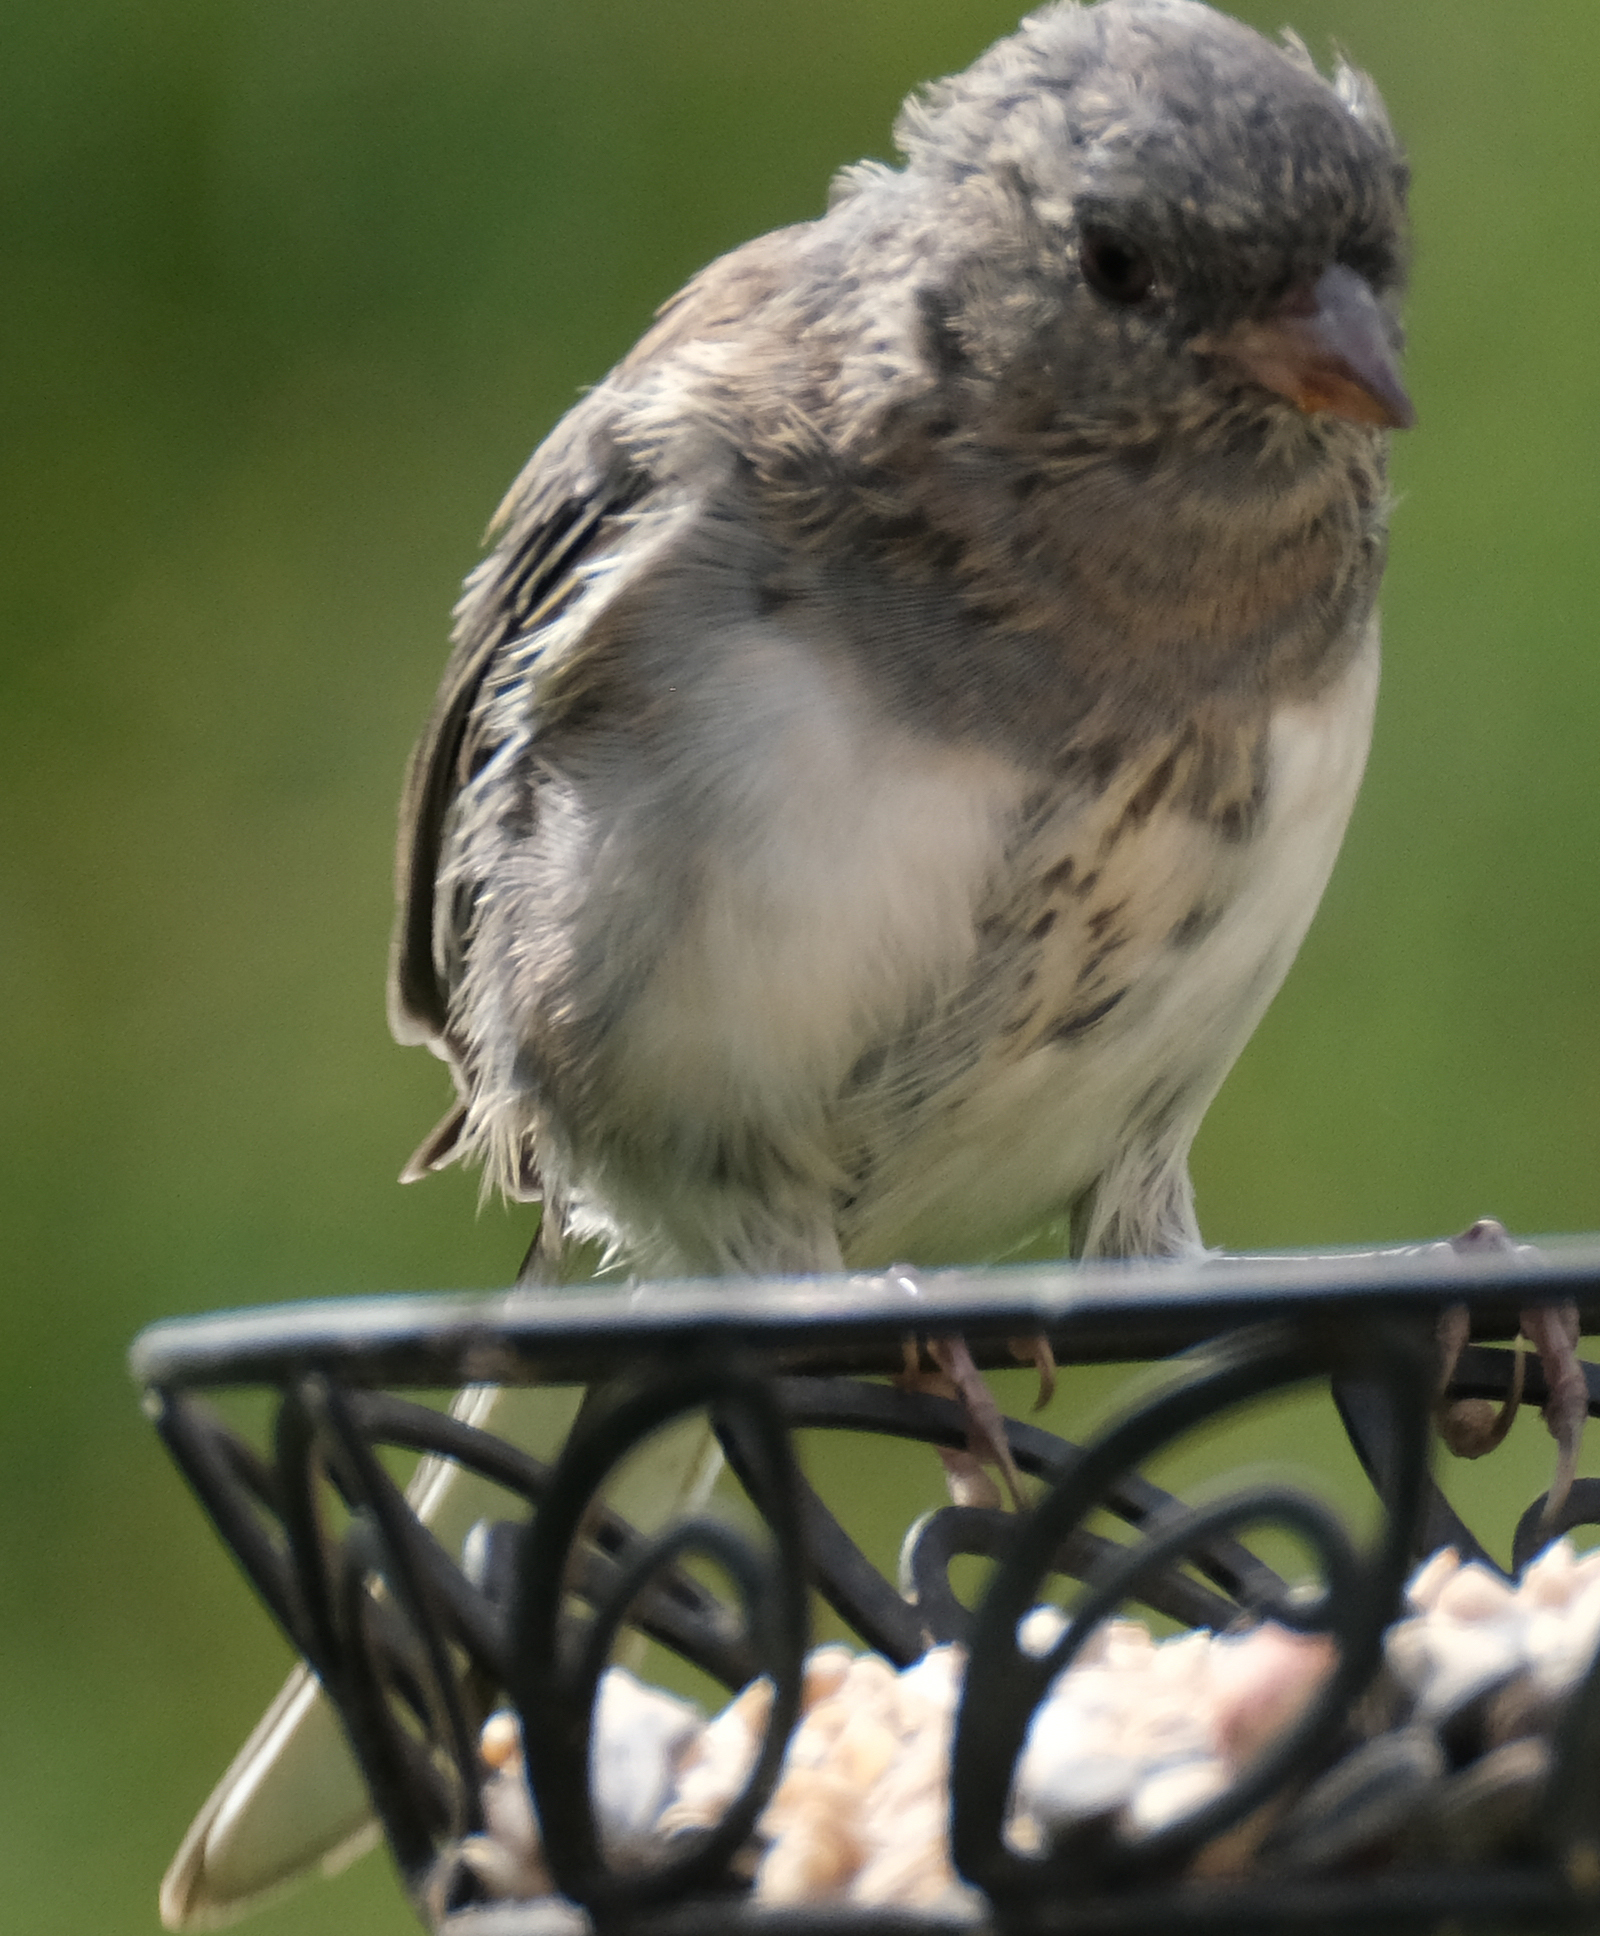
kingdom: Animalia
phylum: Chordata
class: Aves
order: Passeriformes
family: Passerellidae
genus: Junco
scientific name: Junco hyemalis
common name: Dark-eyed junco
